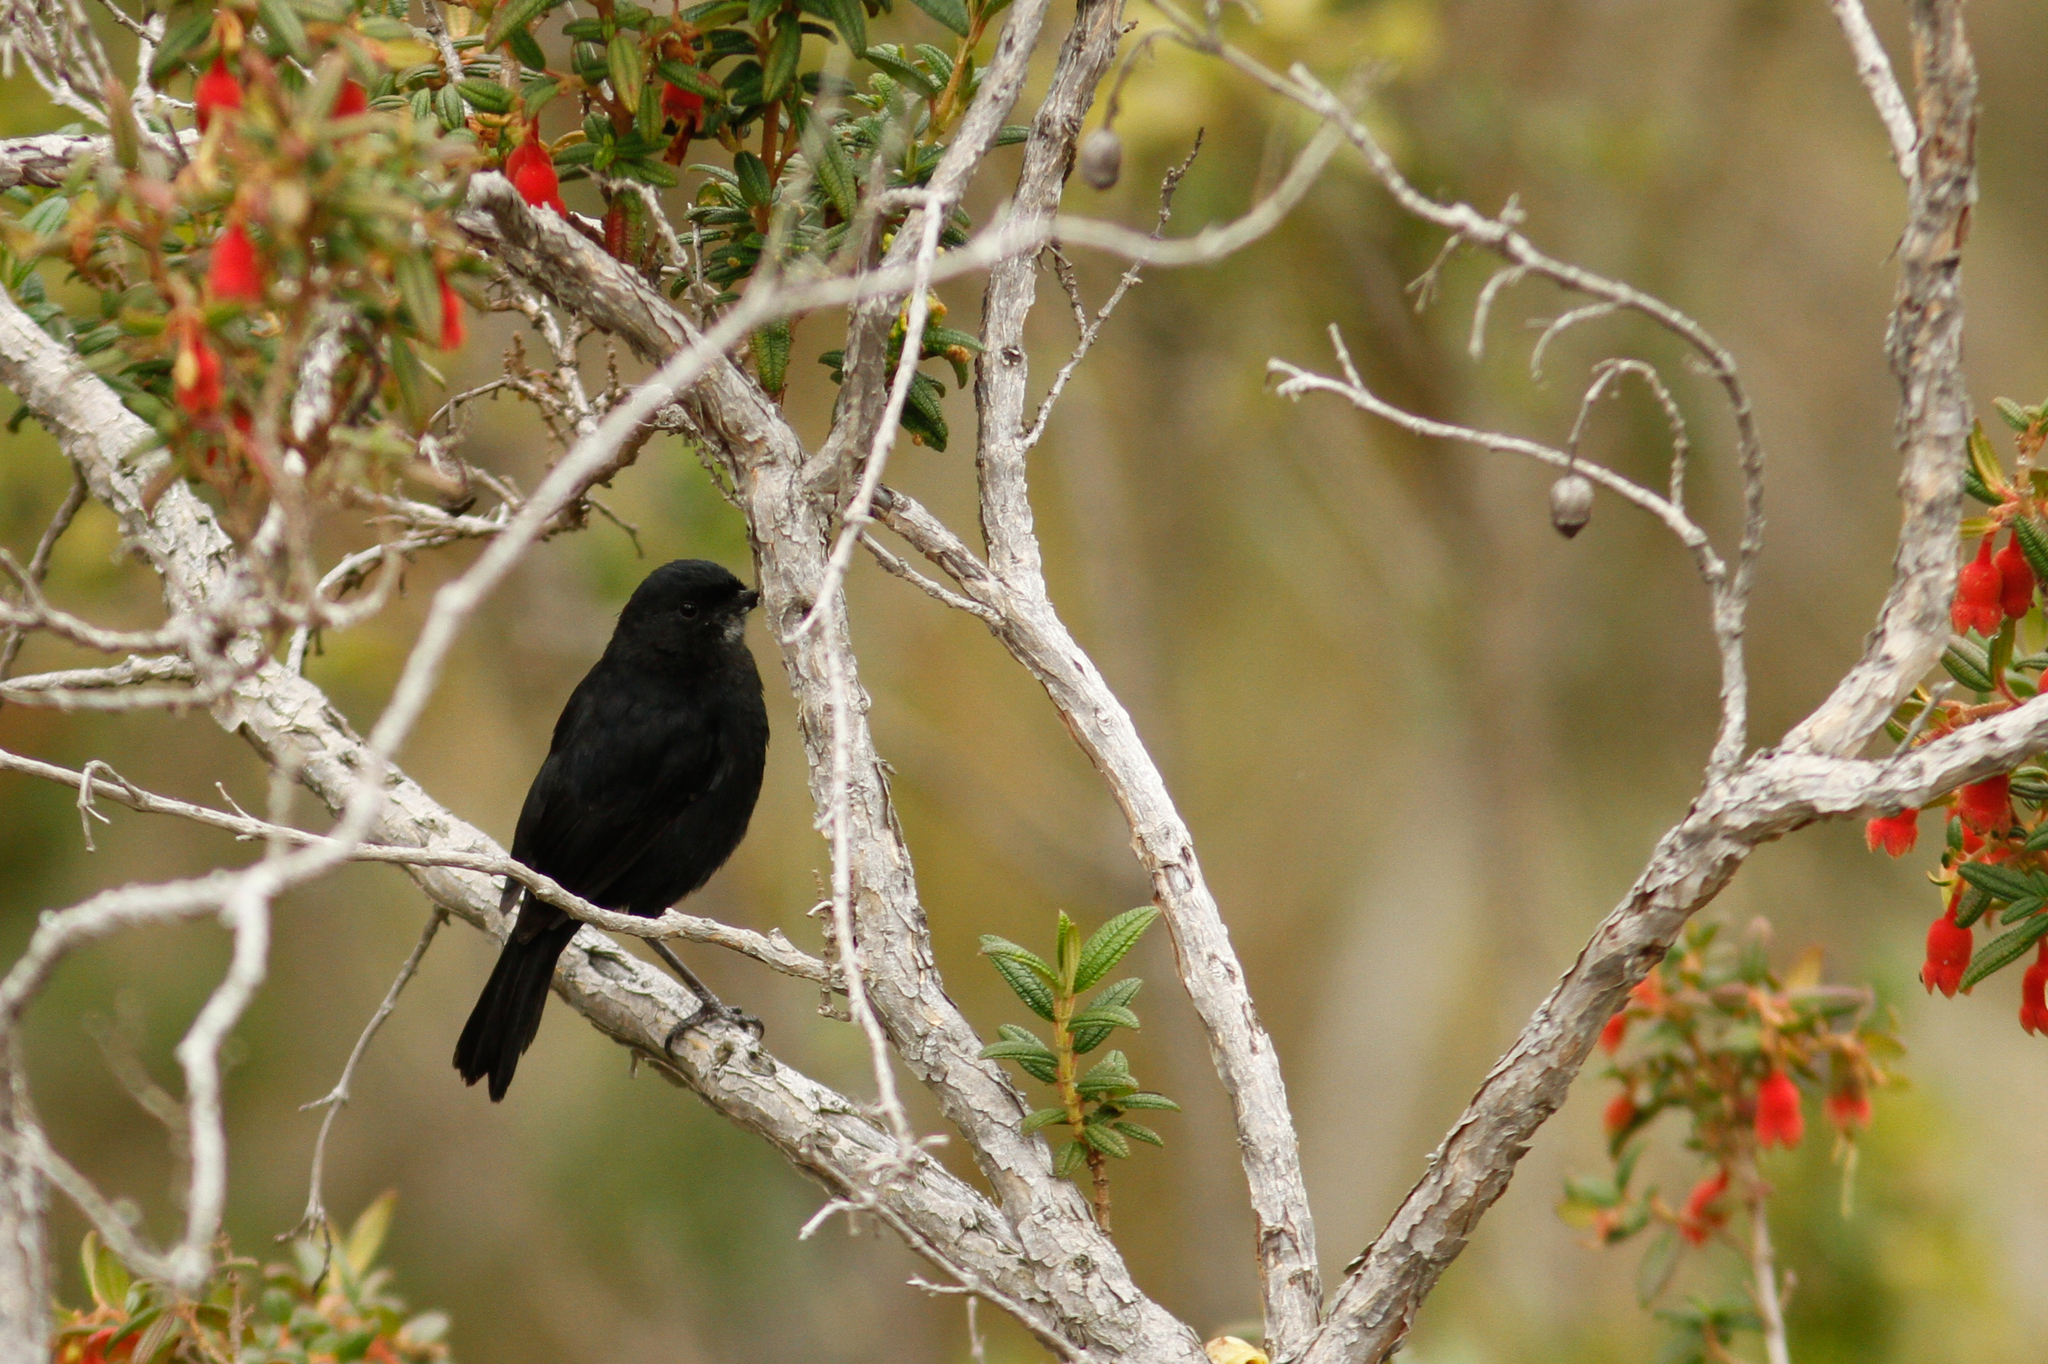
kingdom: Animalia
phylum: Chordata
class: Aves
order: Passeriformes
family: Thraupidae
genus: Diglossa
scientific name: Diglossa humeralis
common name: Black flowerpiercer
